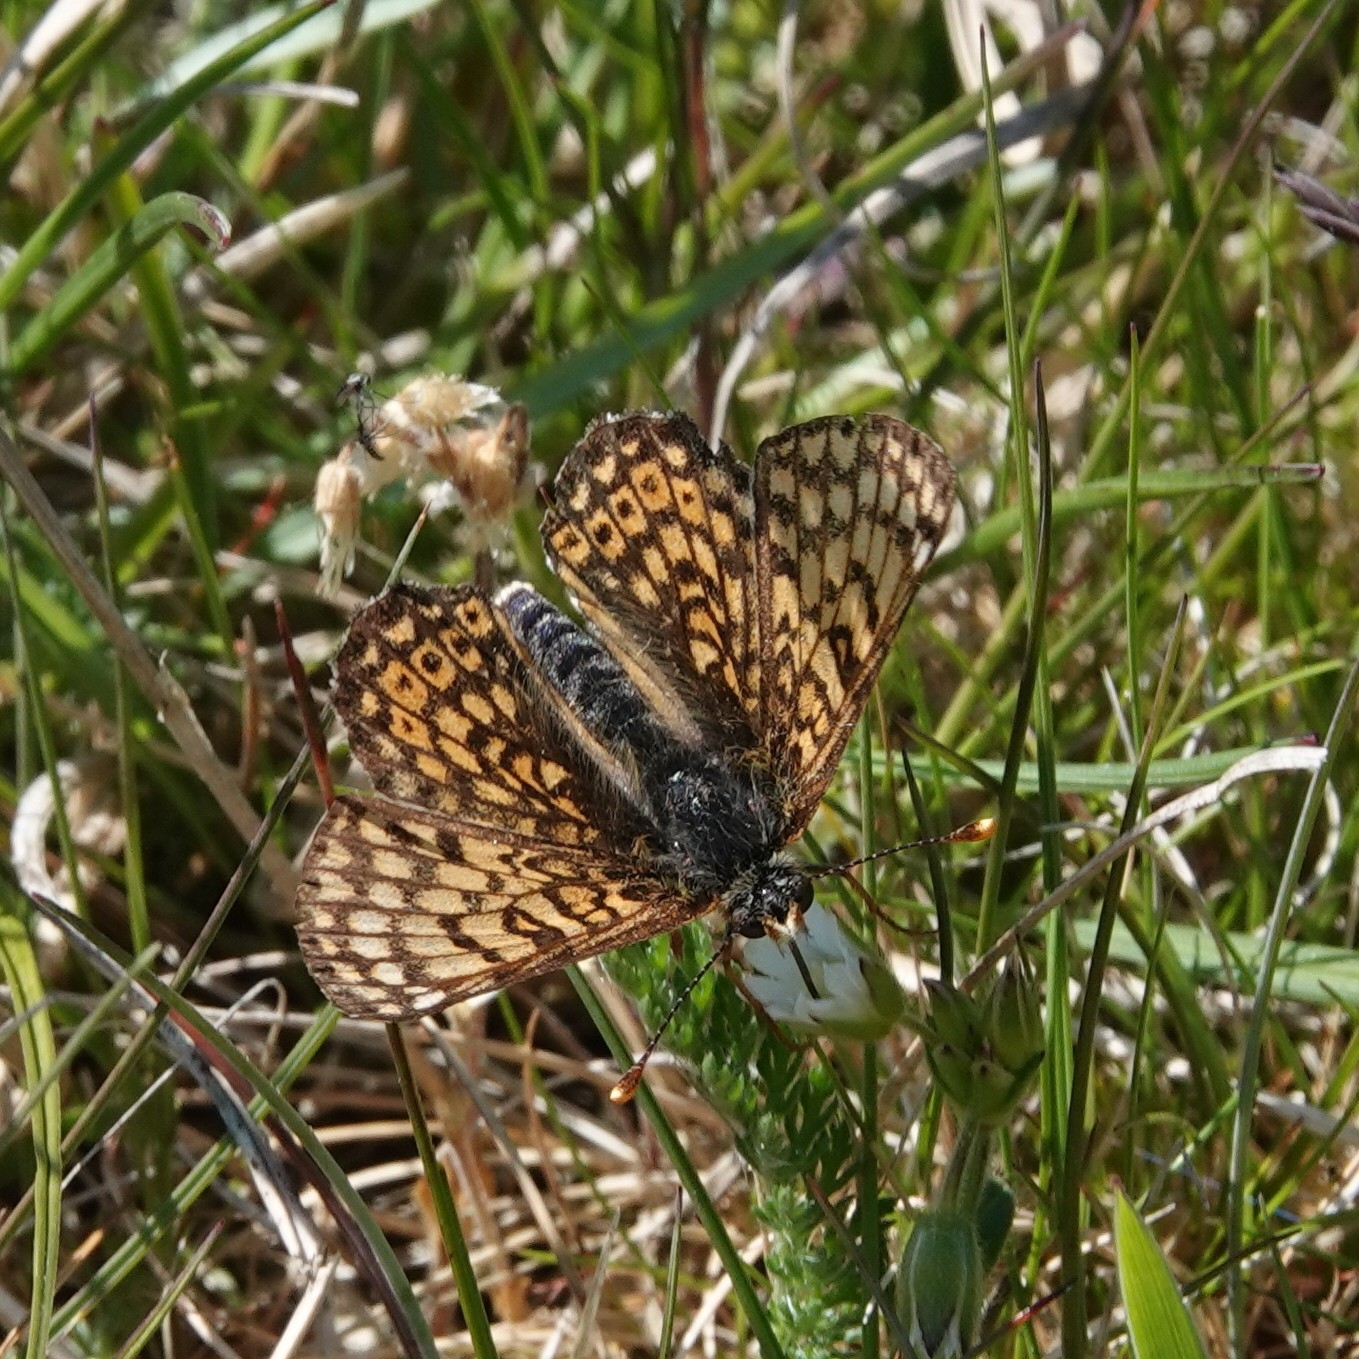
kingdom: Animalia
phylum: Arthropoda
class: Insecta
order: Lepidoptera
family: Nymphalidae
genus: Melitaea
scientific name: Melitaea cinxia
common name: Glanville fritillary
